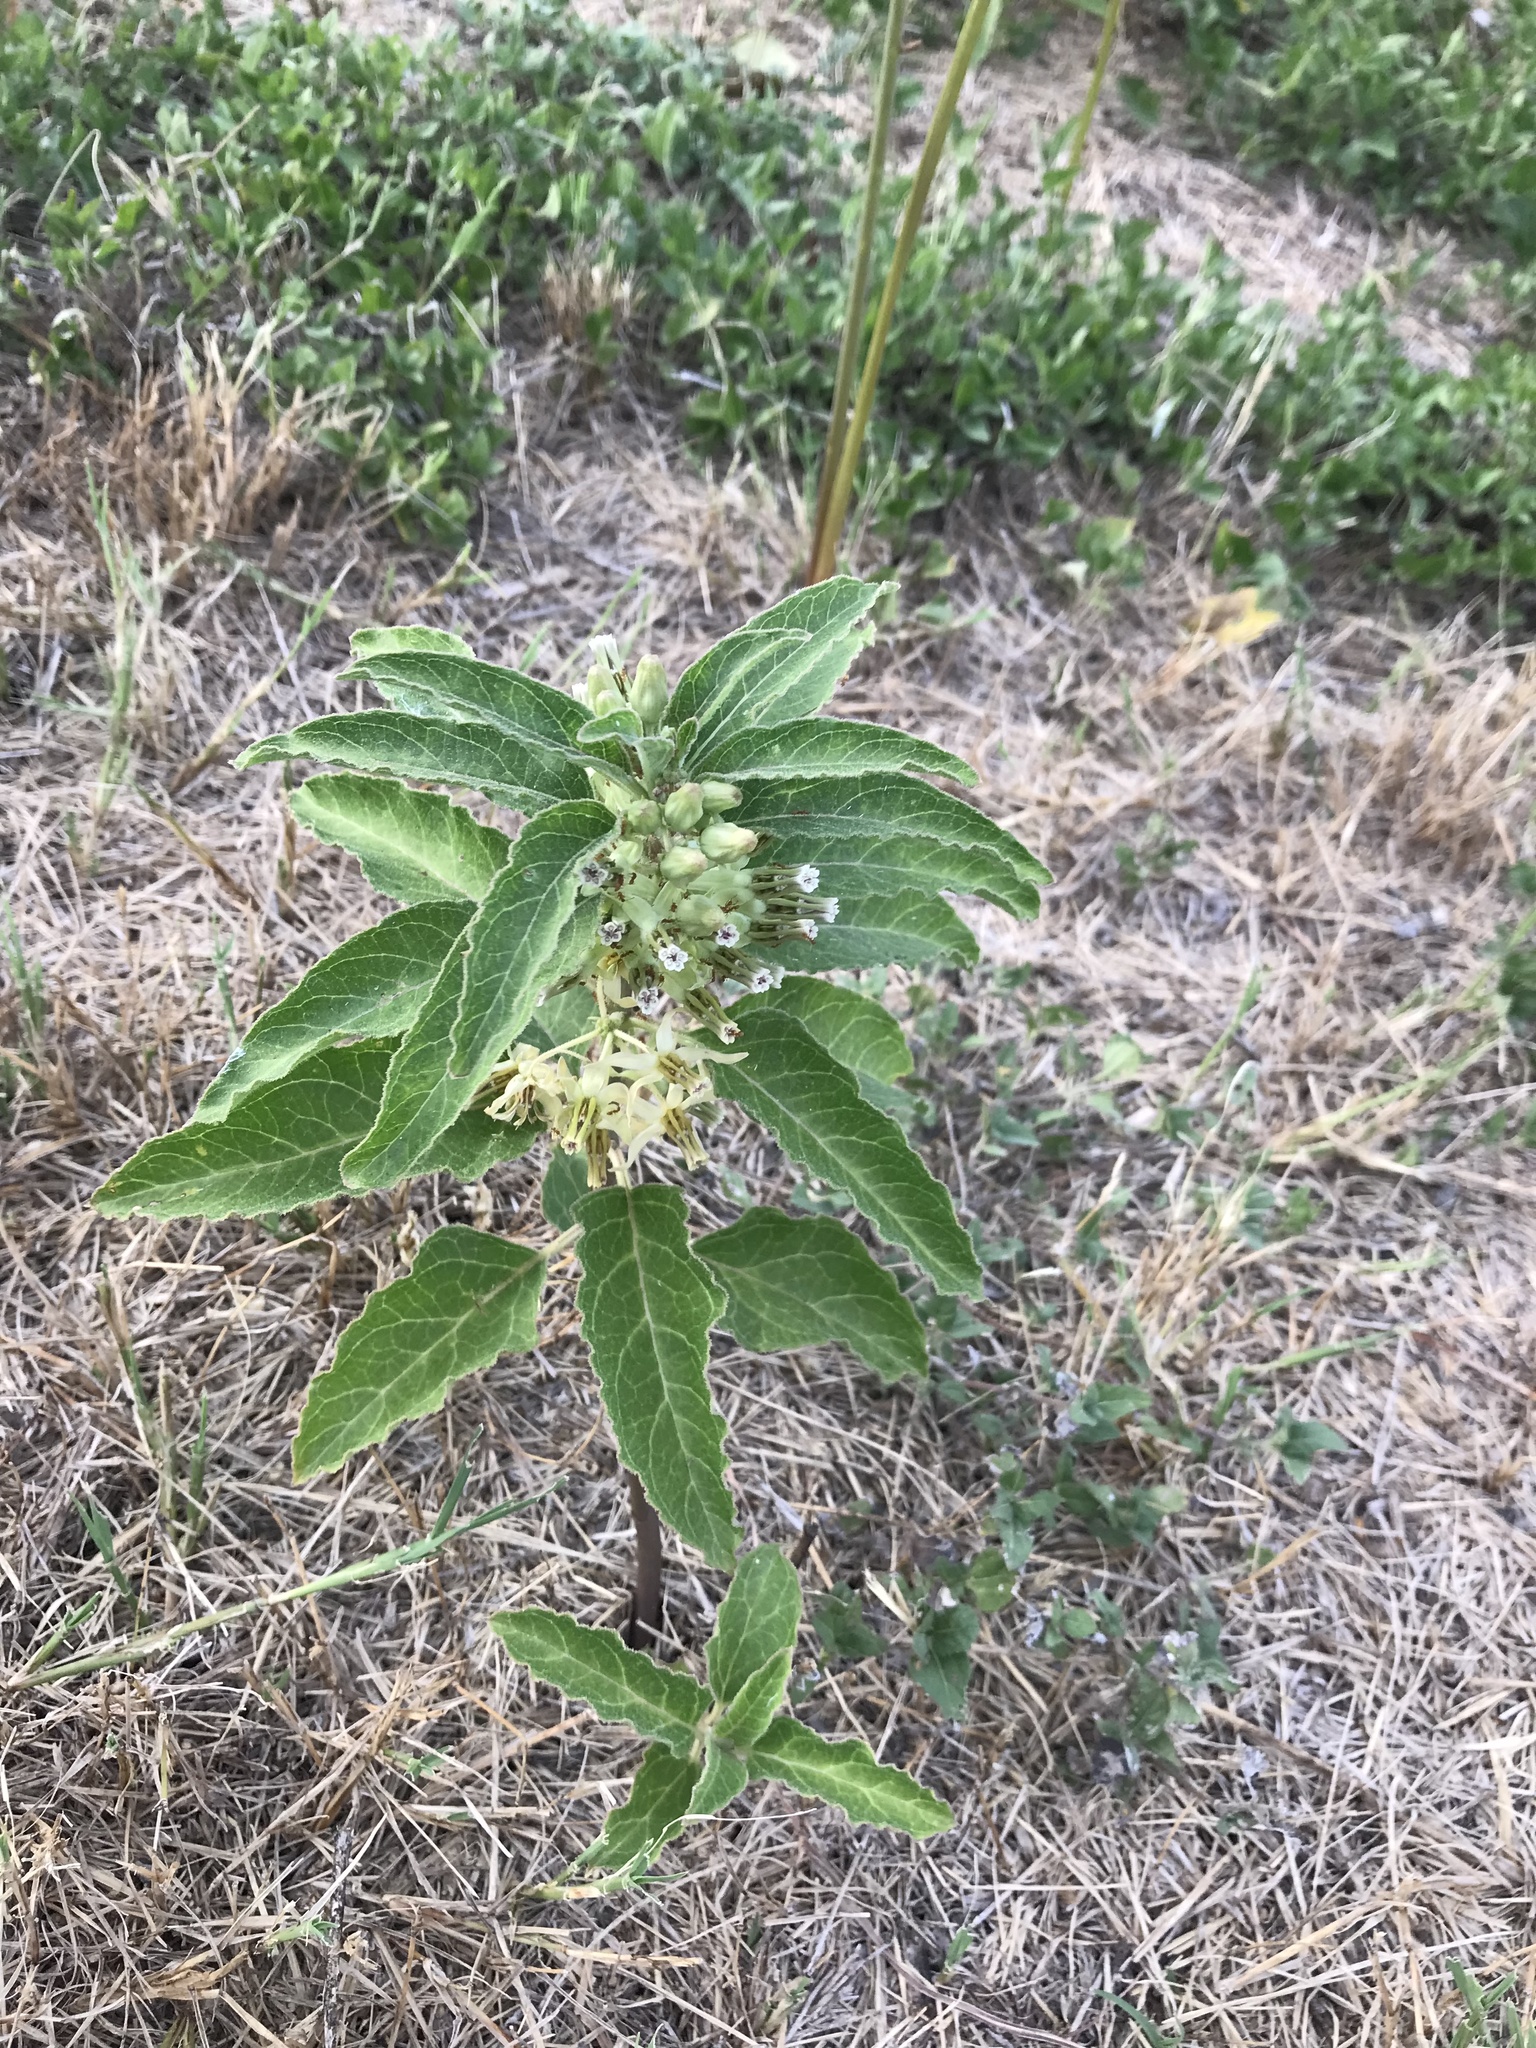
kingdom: Plantae
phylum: Tracheophyta
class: Magnoliopsida
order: Gentianales
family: Apocynaceae
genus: Asclepias
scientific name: Asclepias oenotheroides
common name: Zizotes milkweed
